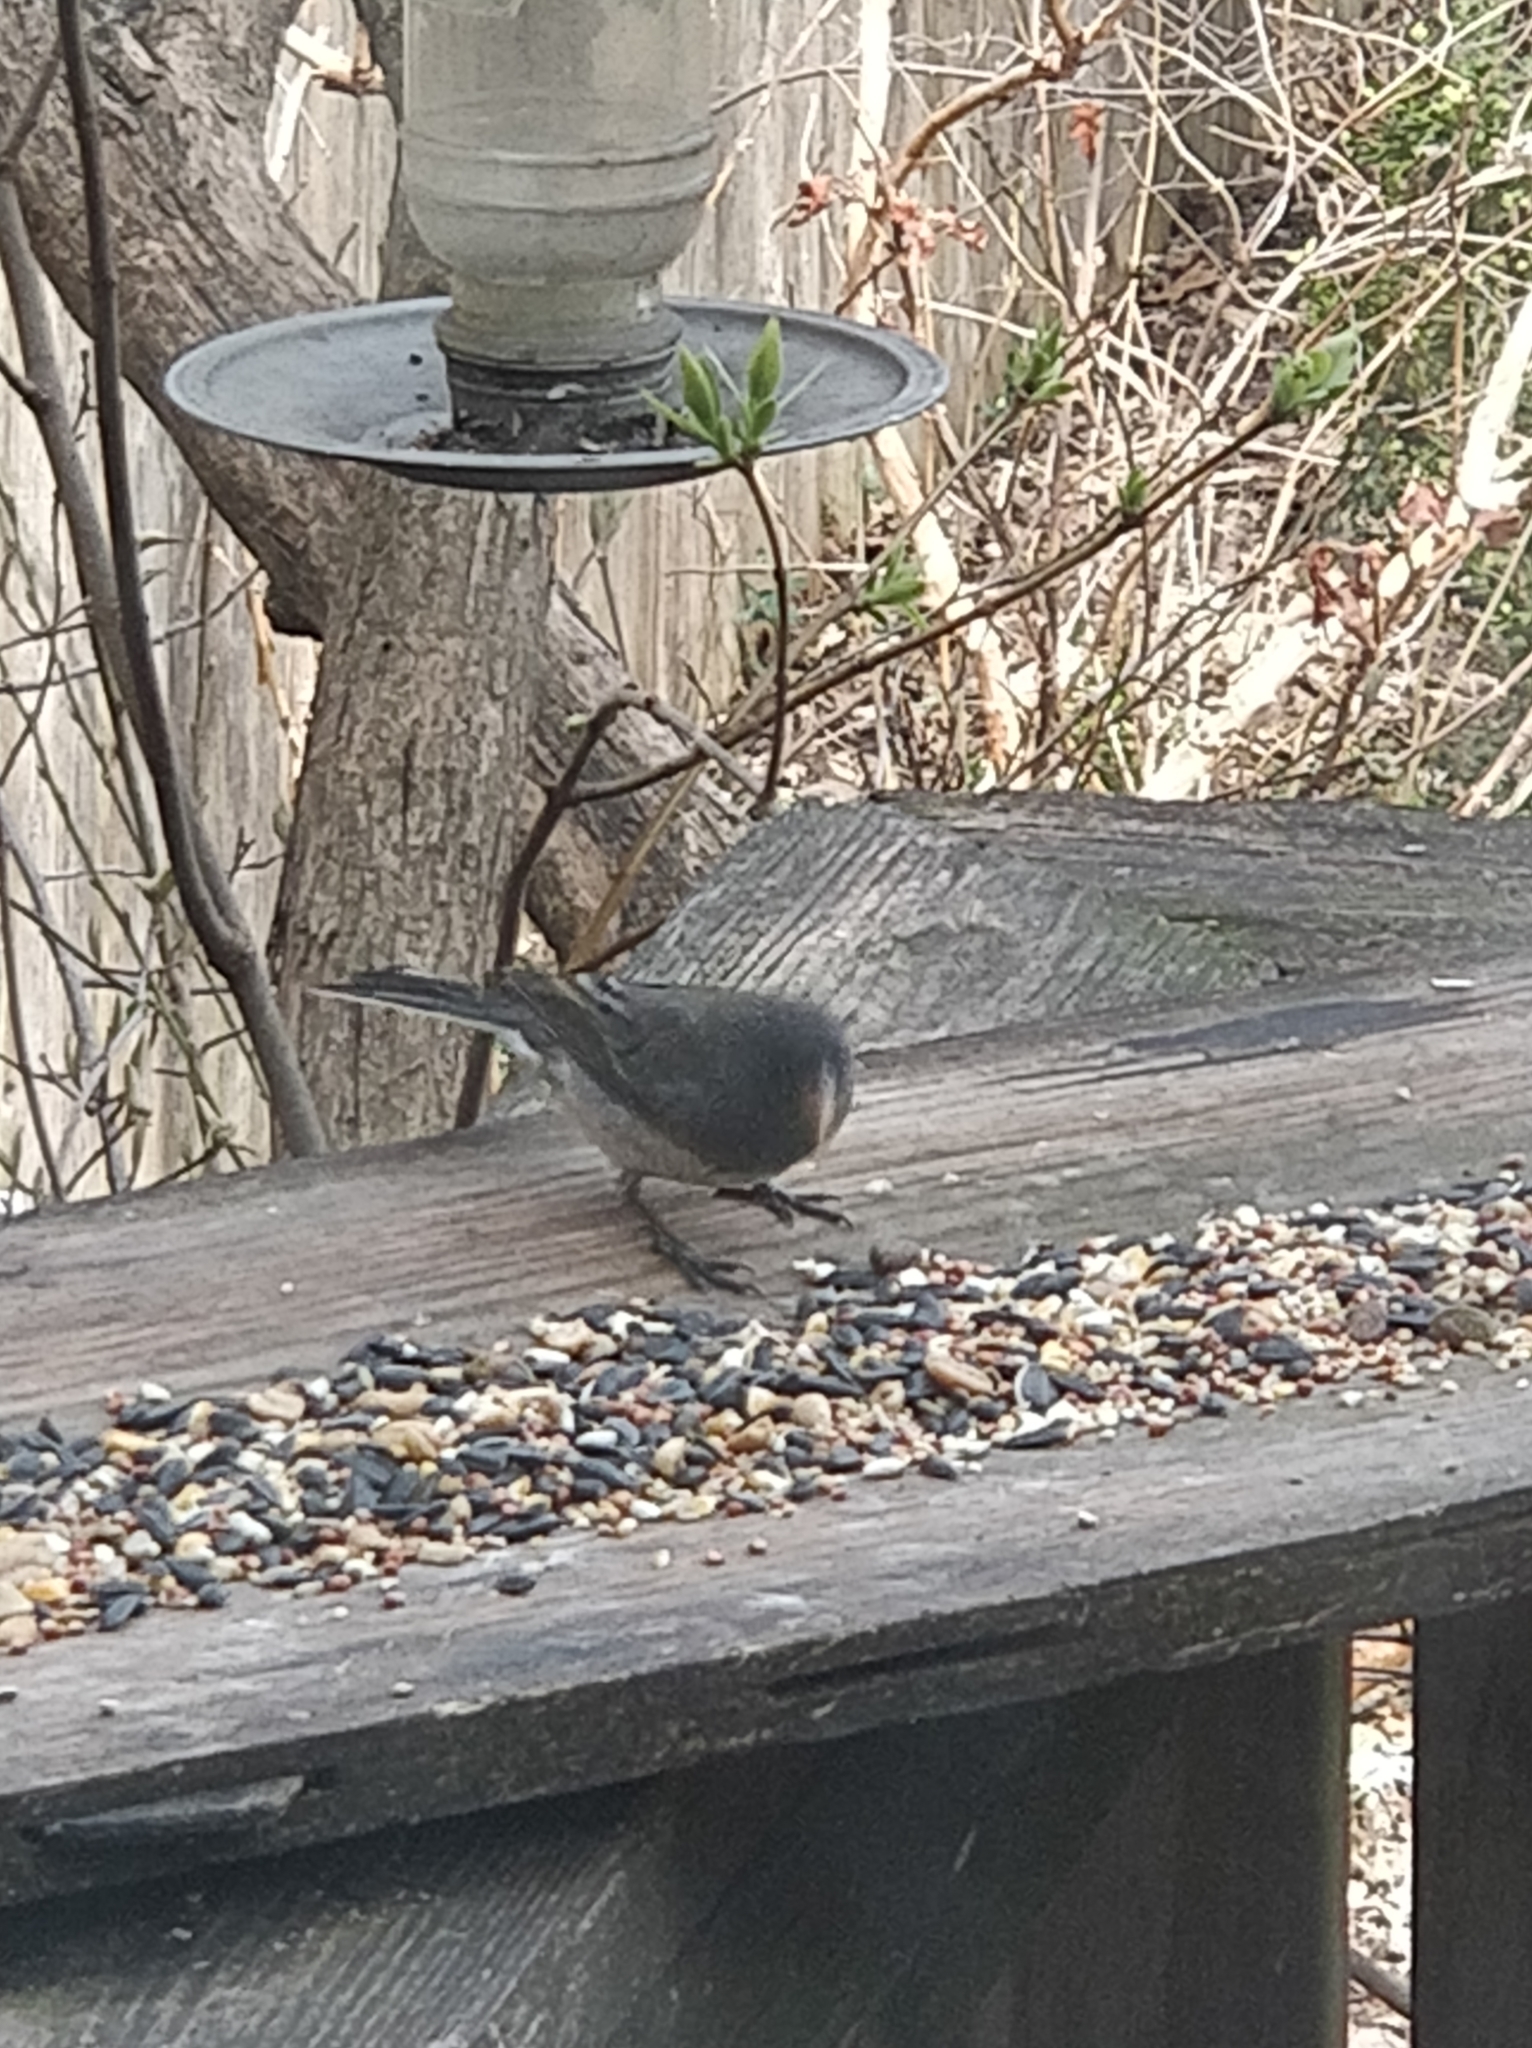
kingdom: Animalia
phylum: Chordata
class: Aves
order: Passeriformes
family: Passerellidae
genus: Junco
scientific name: Junco hyemalis
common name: Dark-eyed junco
